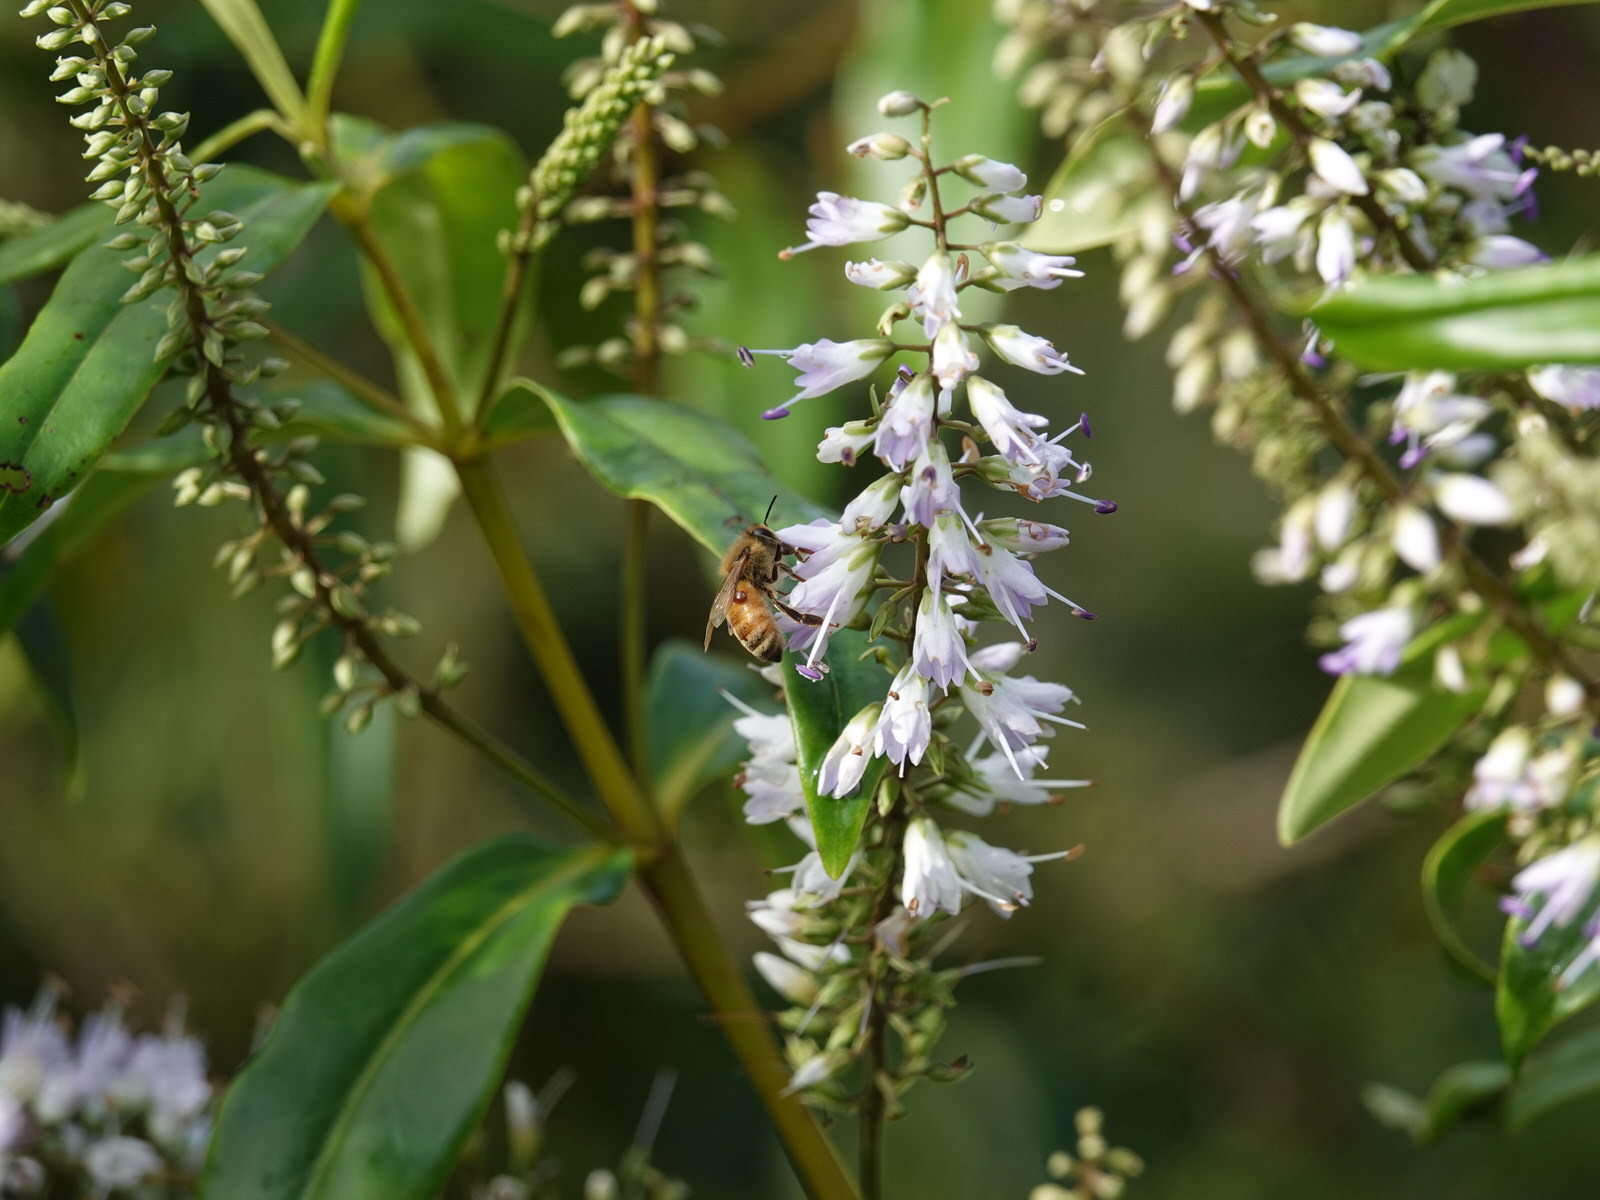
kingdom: Animalia
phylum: Arthropoda
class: Insecta
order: Hymenoptera
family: Apidae
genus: Apis
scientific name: Apis mellifera
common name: Honey bee
